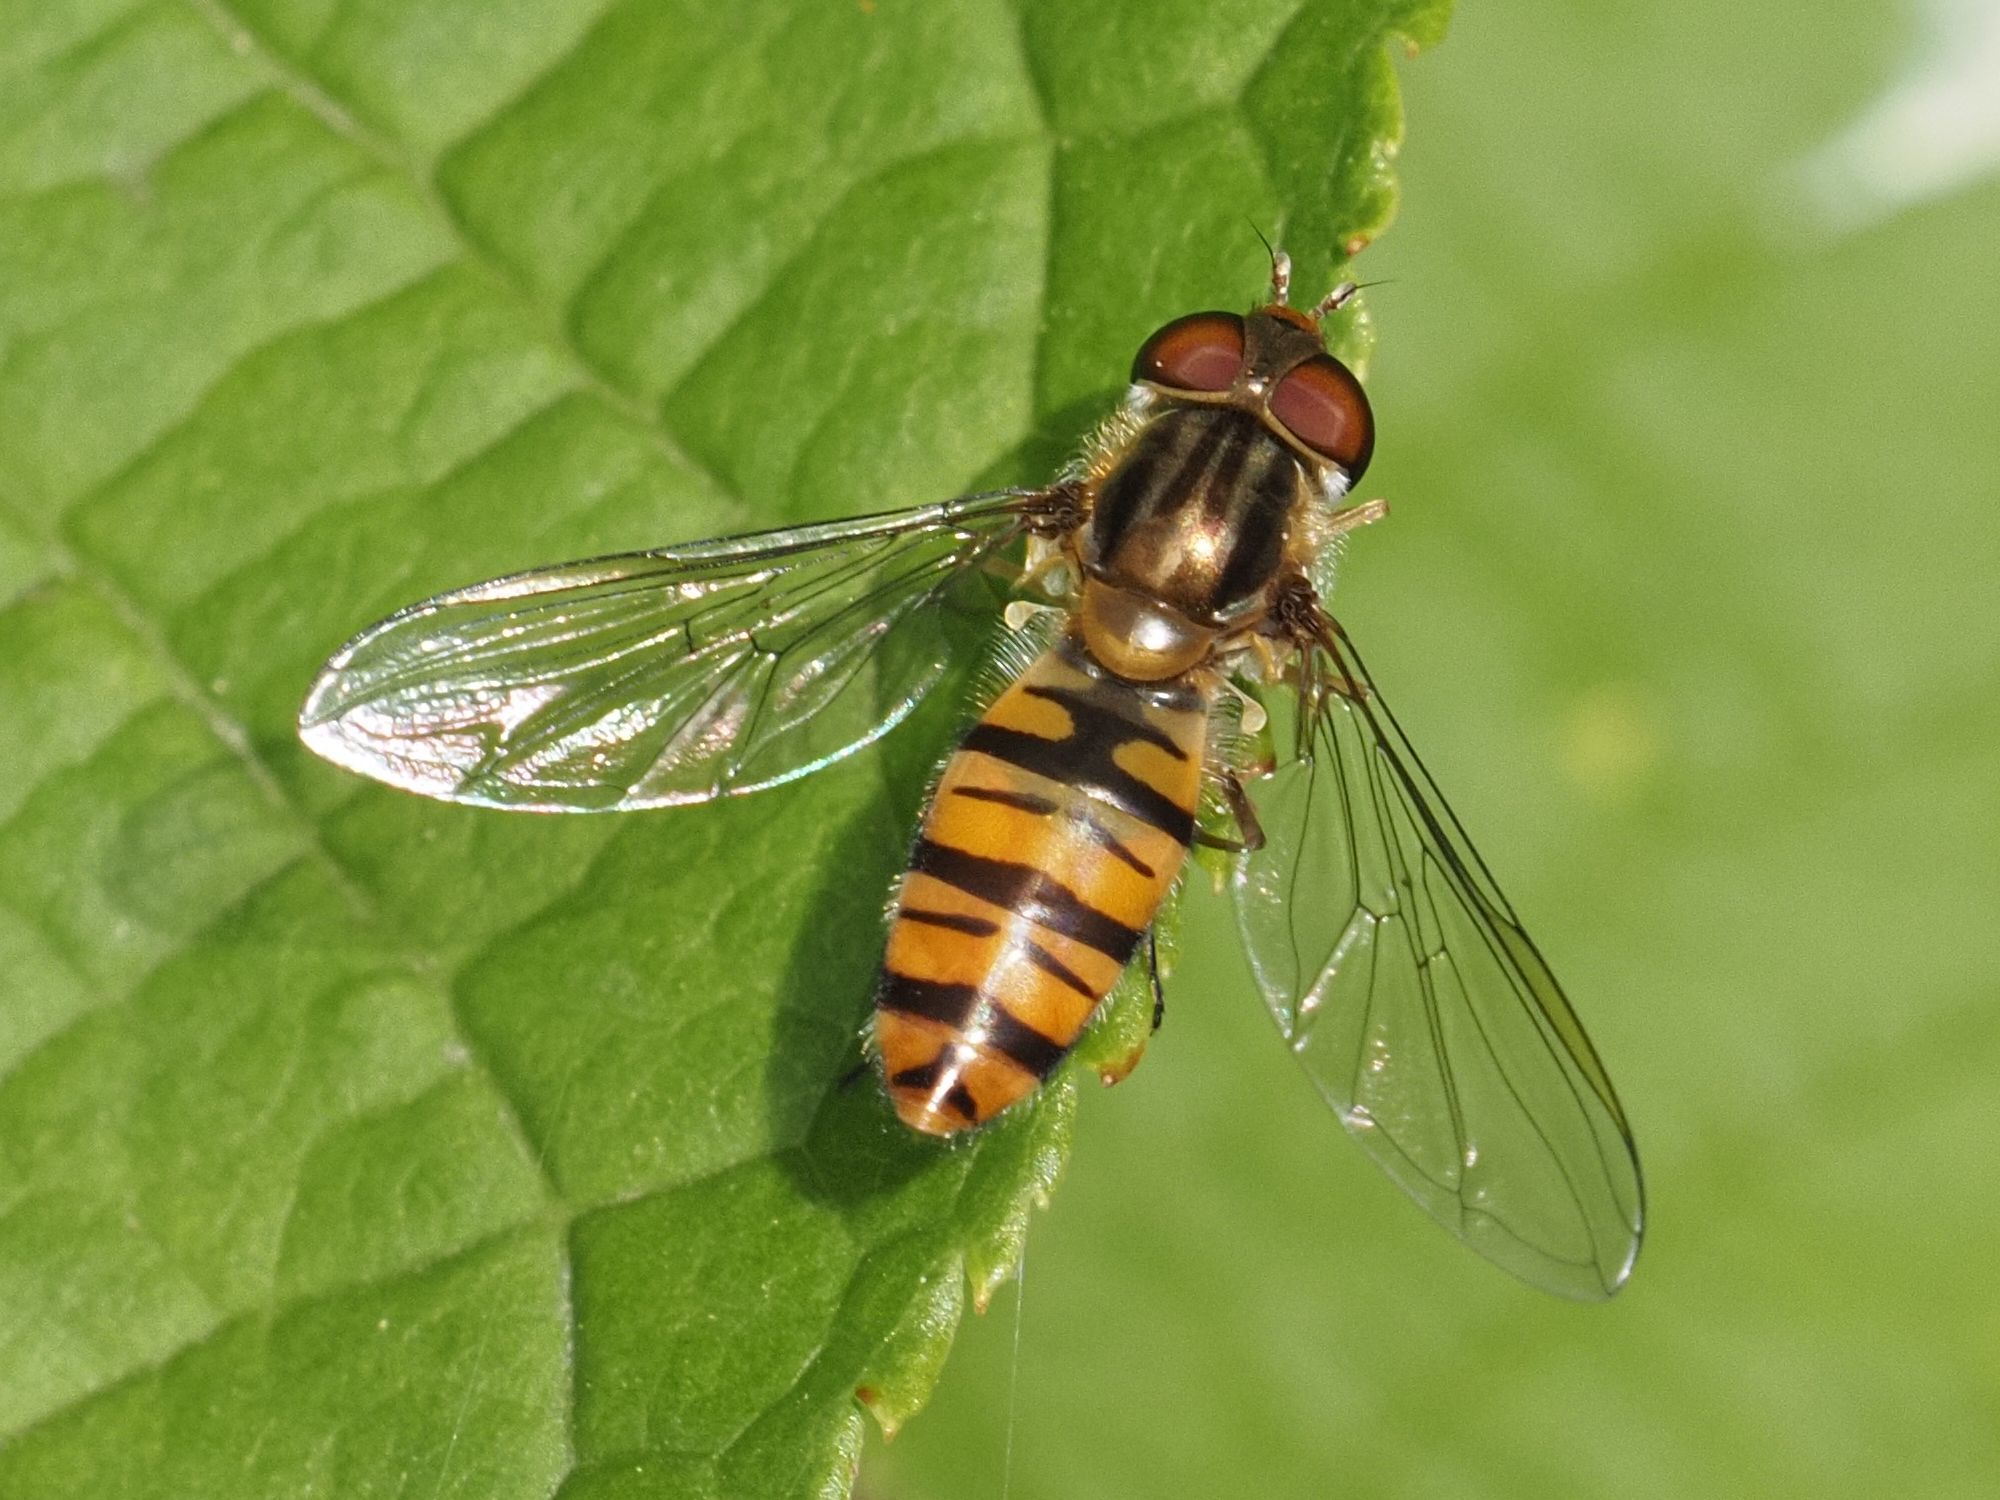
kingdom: Animalia
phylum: Arthropoda
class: Insecta
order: Diptera
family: Syrphidae
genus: Episyrphus
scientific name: Episyrphus balteatus
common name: Marmalade hoverfly
